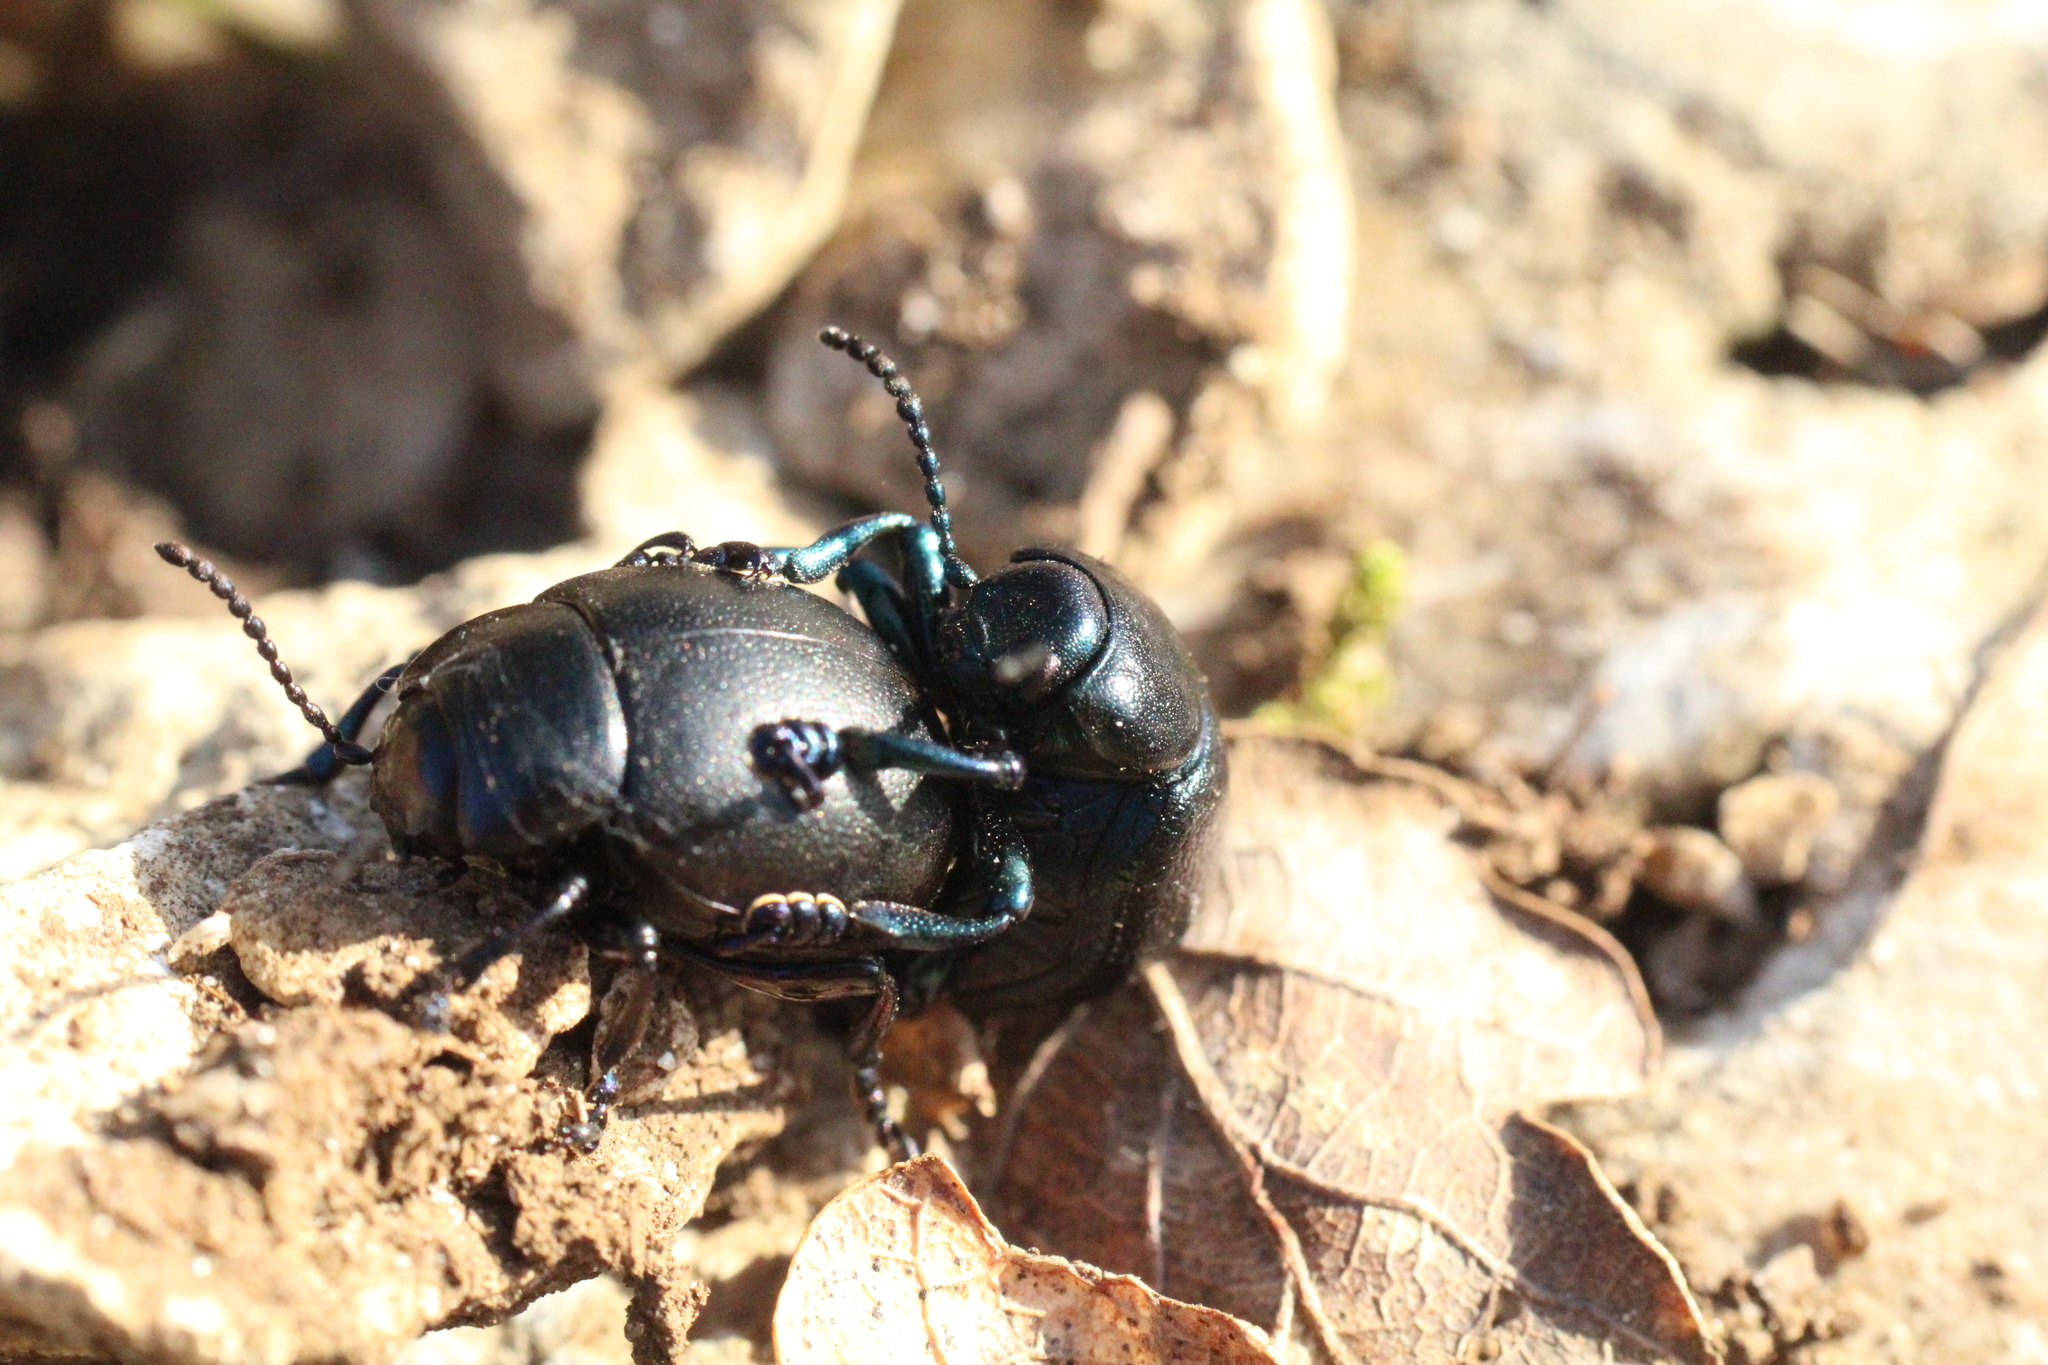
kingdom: Animalia
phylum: Arthropoda
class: Insecta
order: Coleoptera
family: Chrysomelidae
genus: Timarcha
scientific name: Timarcha goettingensis
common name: Small bloody-nosed beetle
